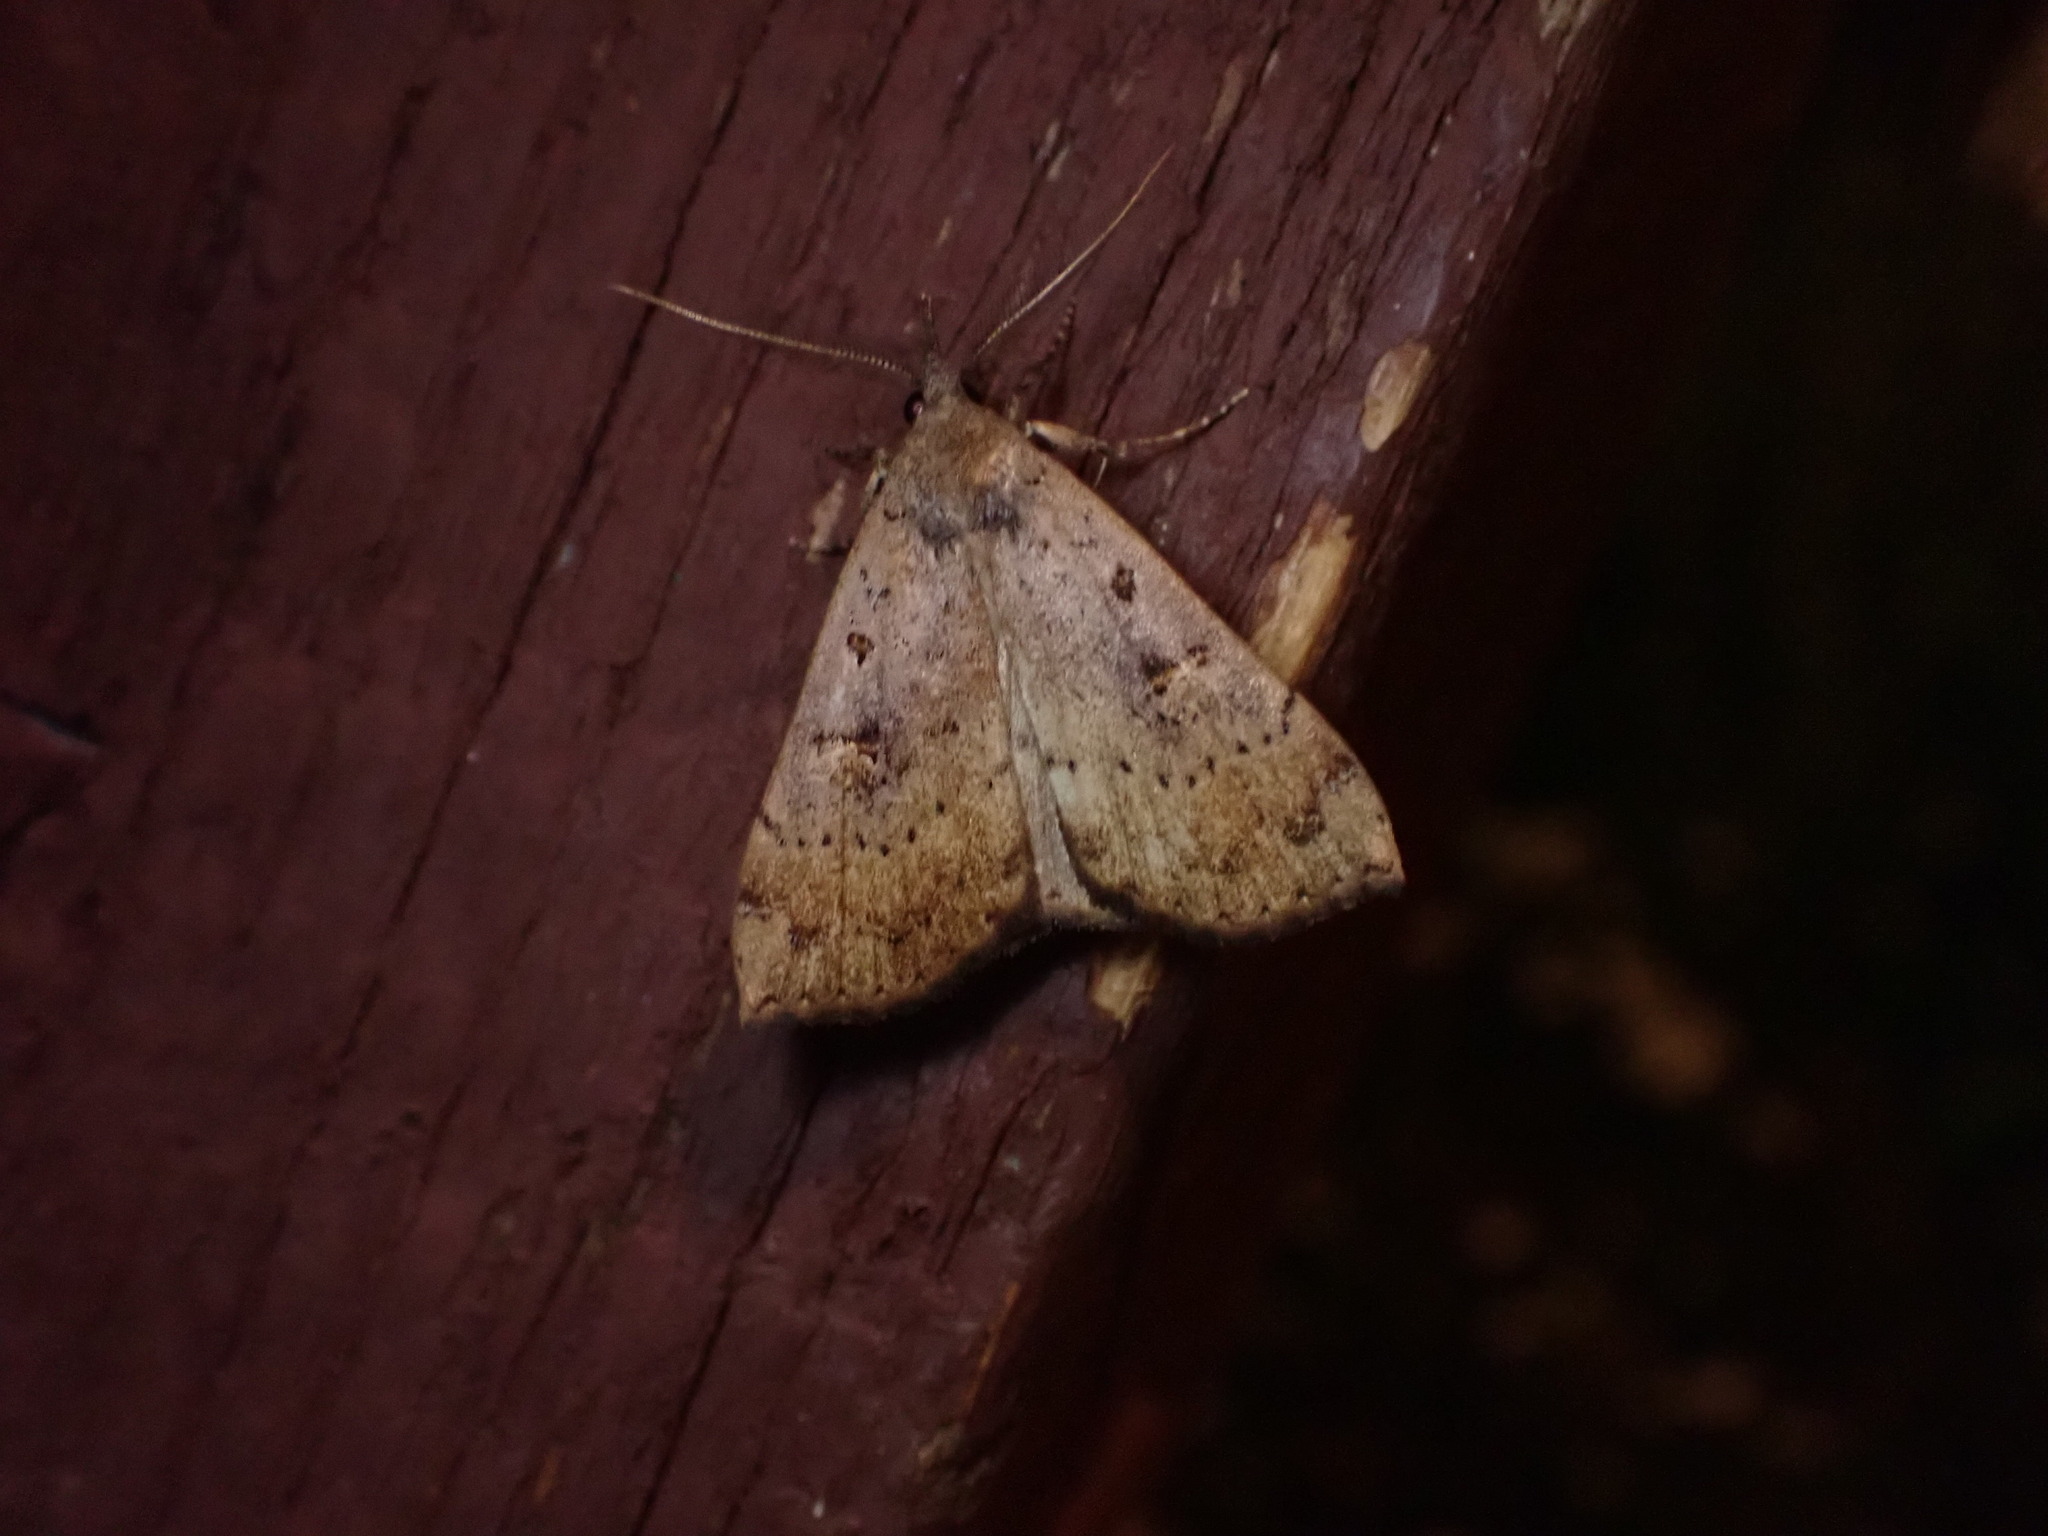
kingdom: Animalia
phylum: Arthropoda
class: Insecta
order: Lepidoptera
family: Erebidae
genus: Rhapsa
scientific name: Rhapsa scotosialis
